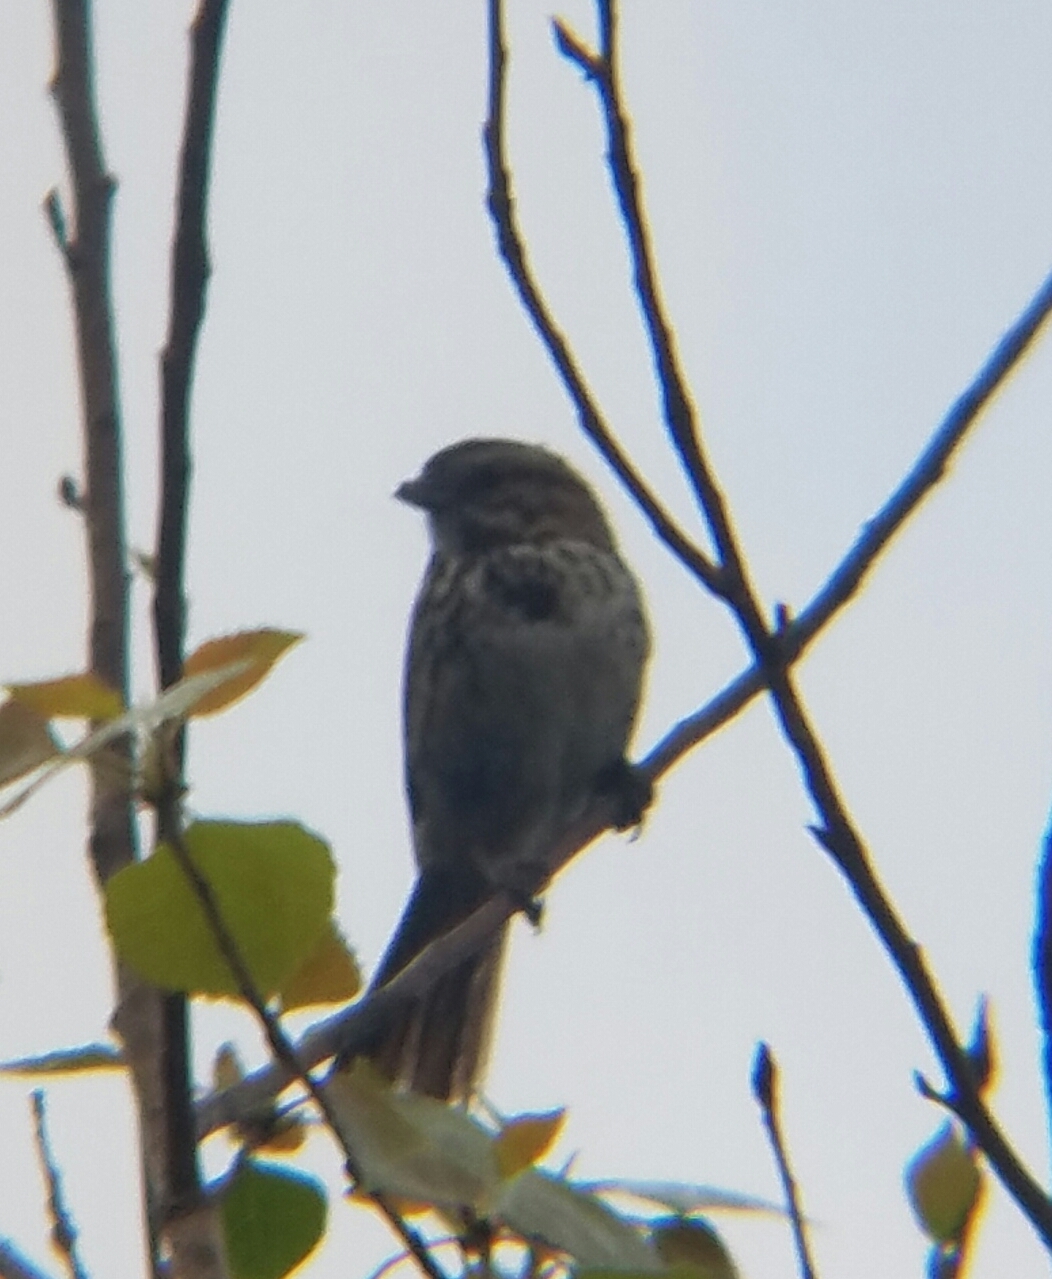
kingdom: Animalia
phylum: Chordata
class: Aves
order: Passeriformes
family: Passerellidae
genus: Melospiza
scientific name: Melospiza melodia
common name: Song sparrow
